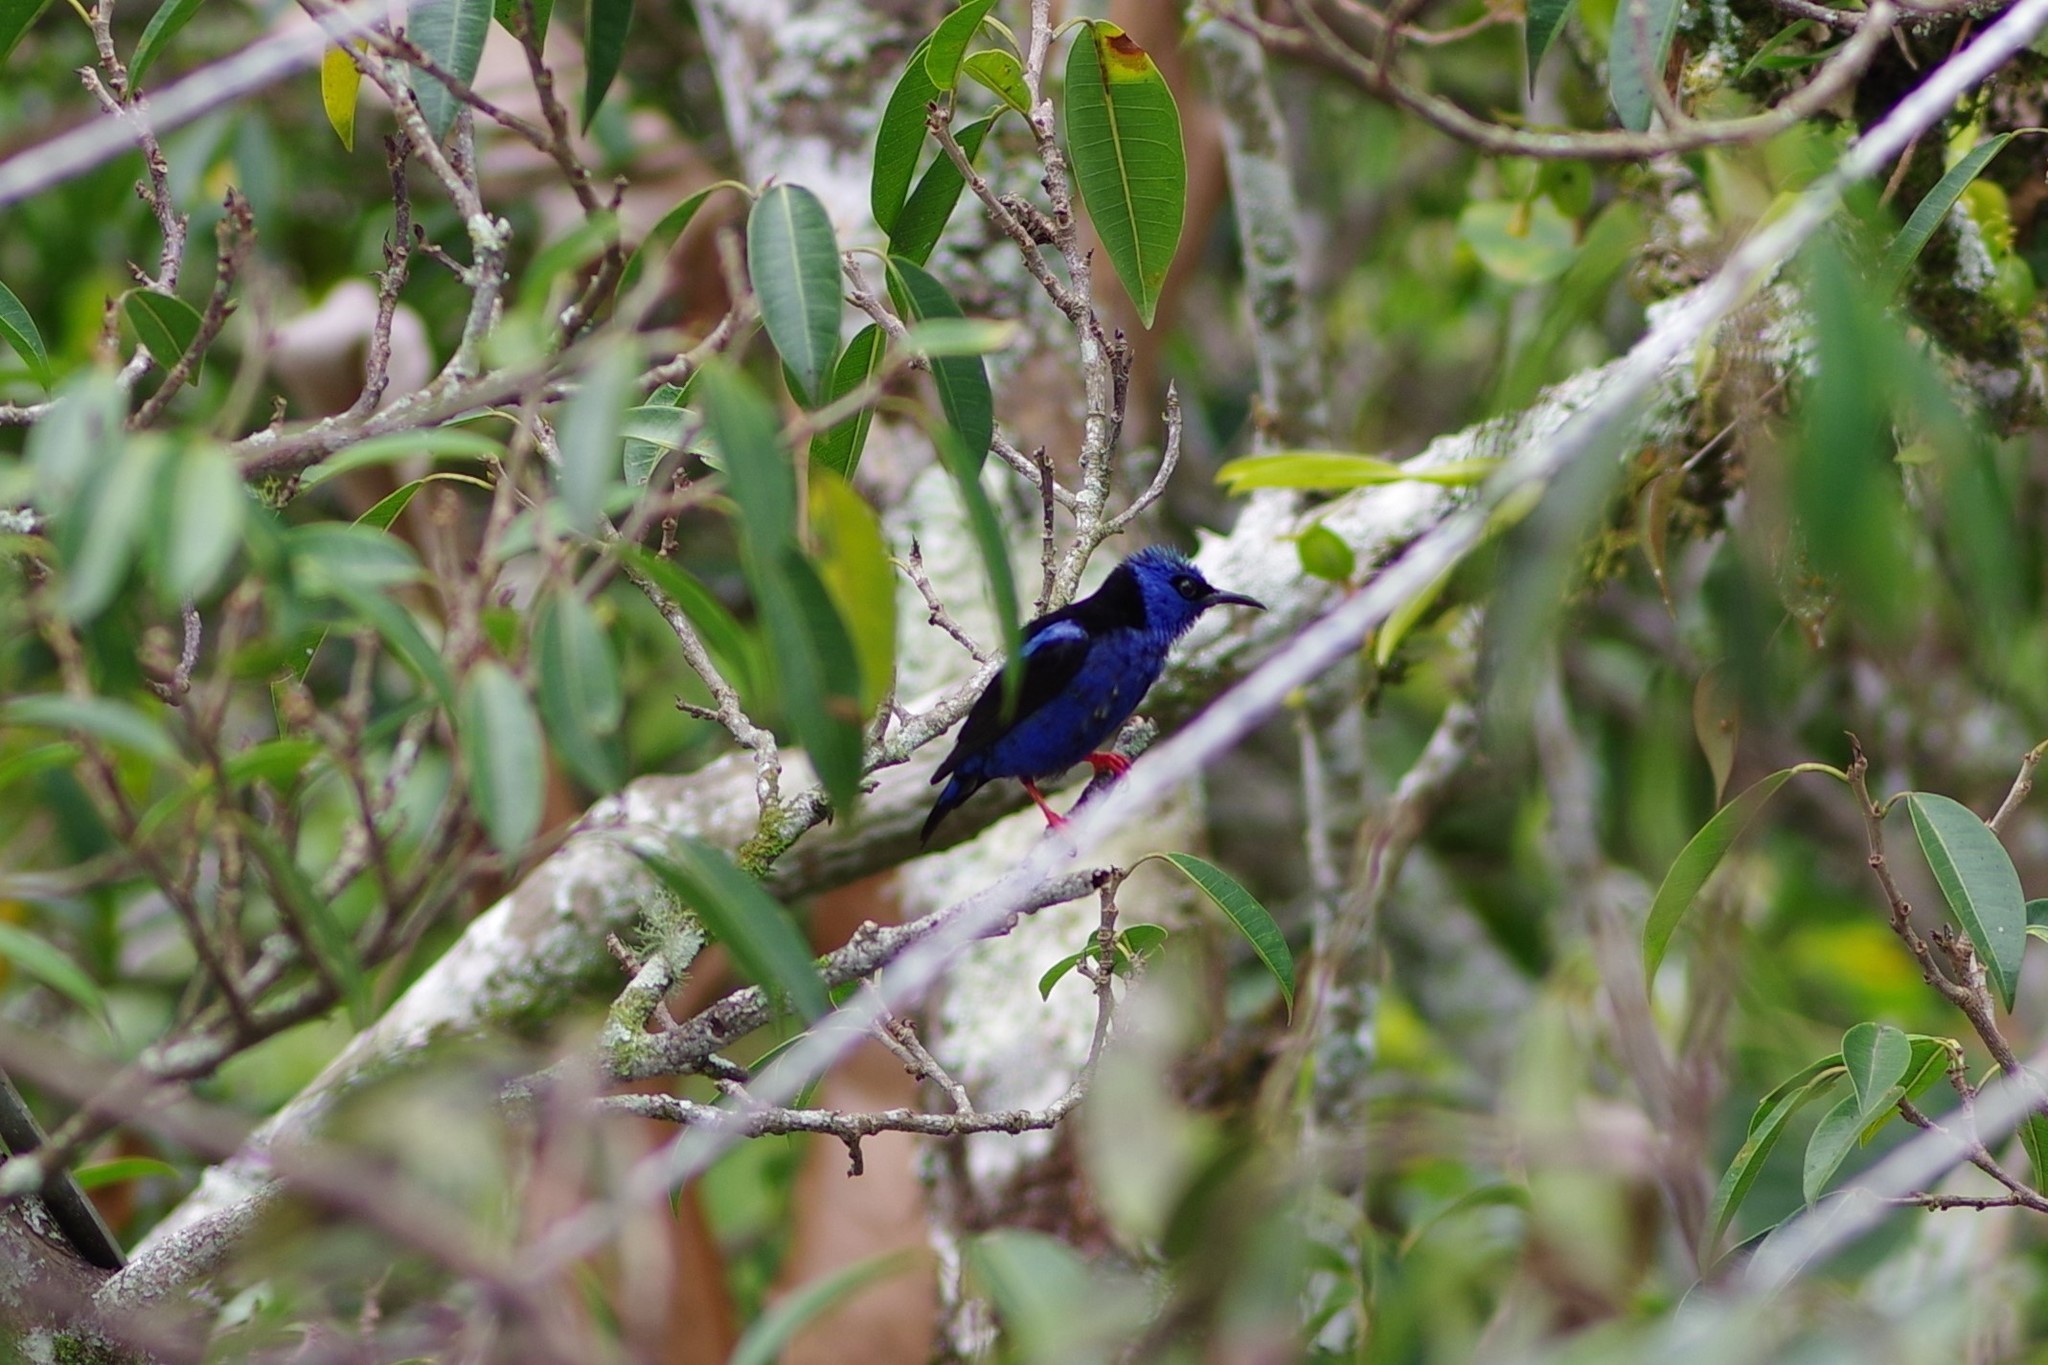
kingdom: Animalia
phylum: Chordata
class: Aves
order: Passeriformes
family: Thraupidae
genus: Cyanerpes
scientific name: Cyanerpes cyaneus
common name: Red-legged honeycreeper
